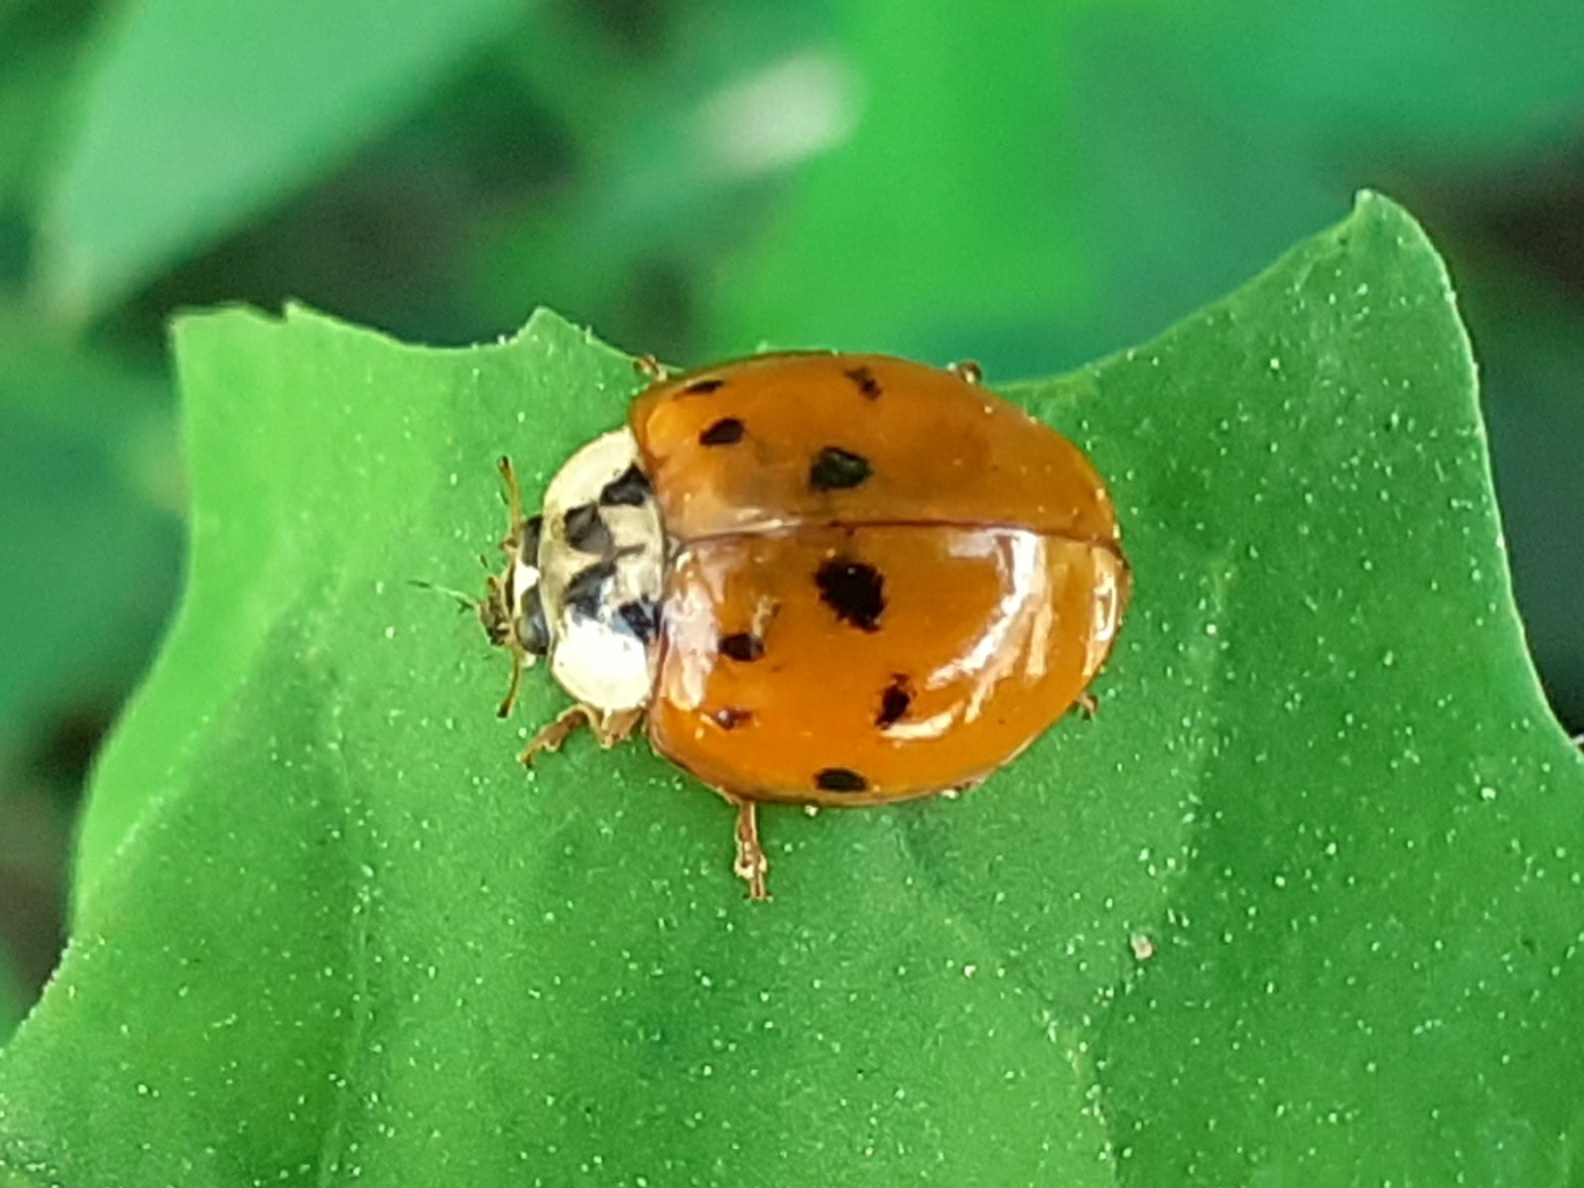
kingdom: Animalia
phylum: Arthropoda
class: Insecta
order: Coleoptera
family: Coccinellidae
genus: Harmonia
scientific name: Harmonia axyridis
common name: Harlequin ladybird
